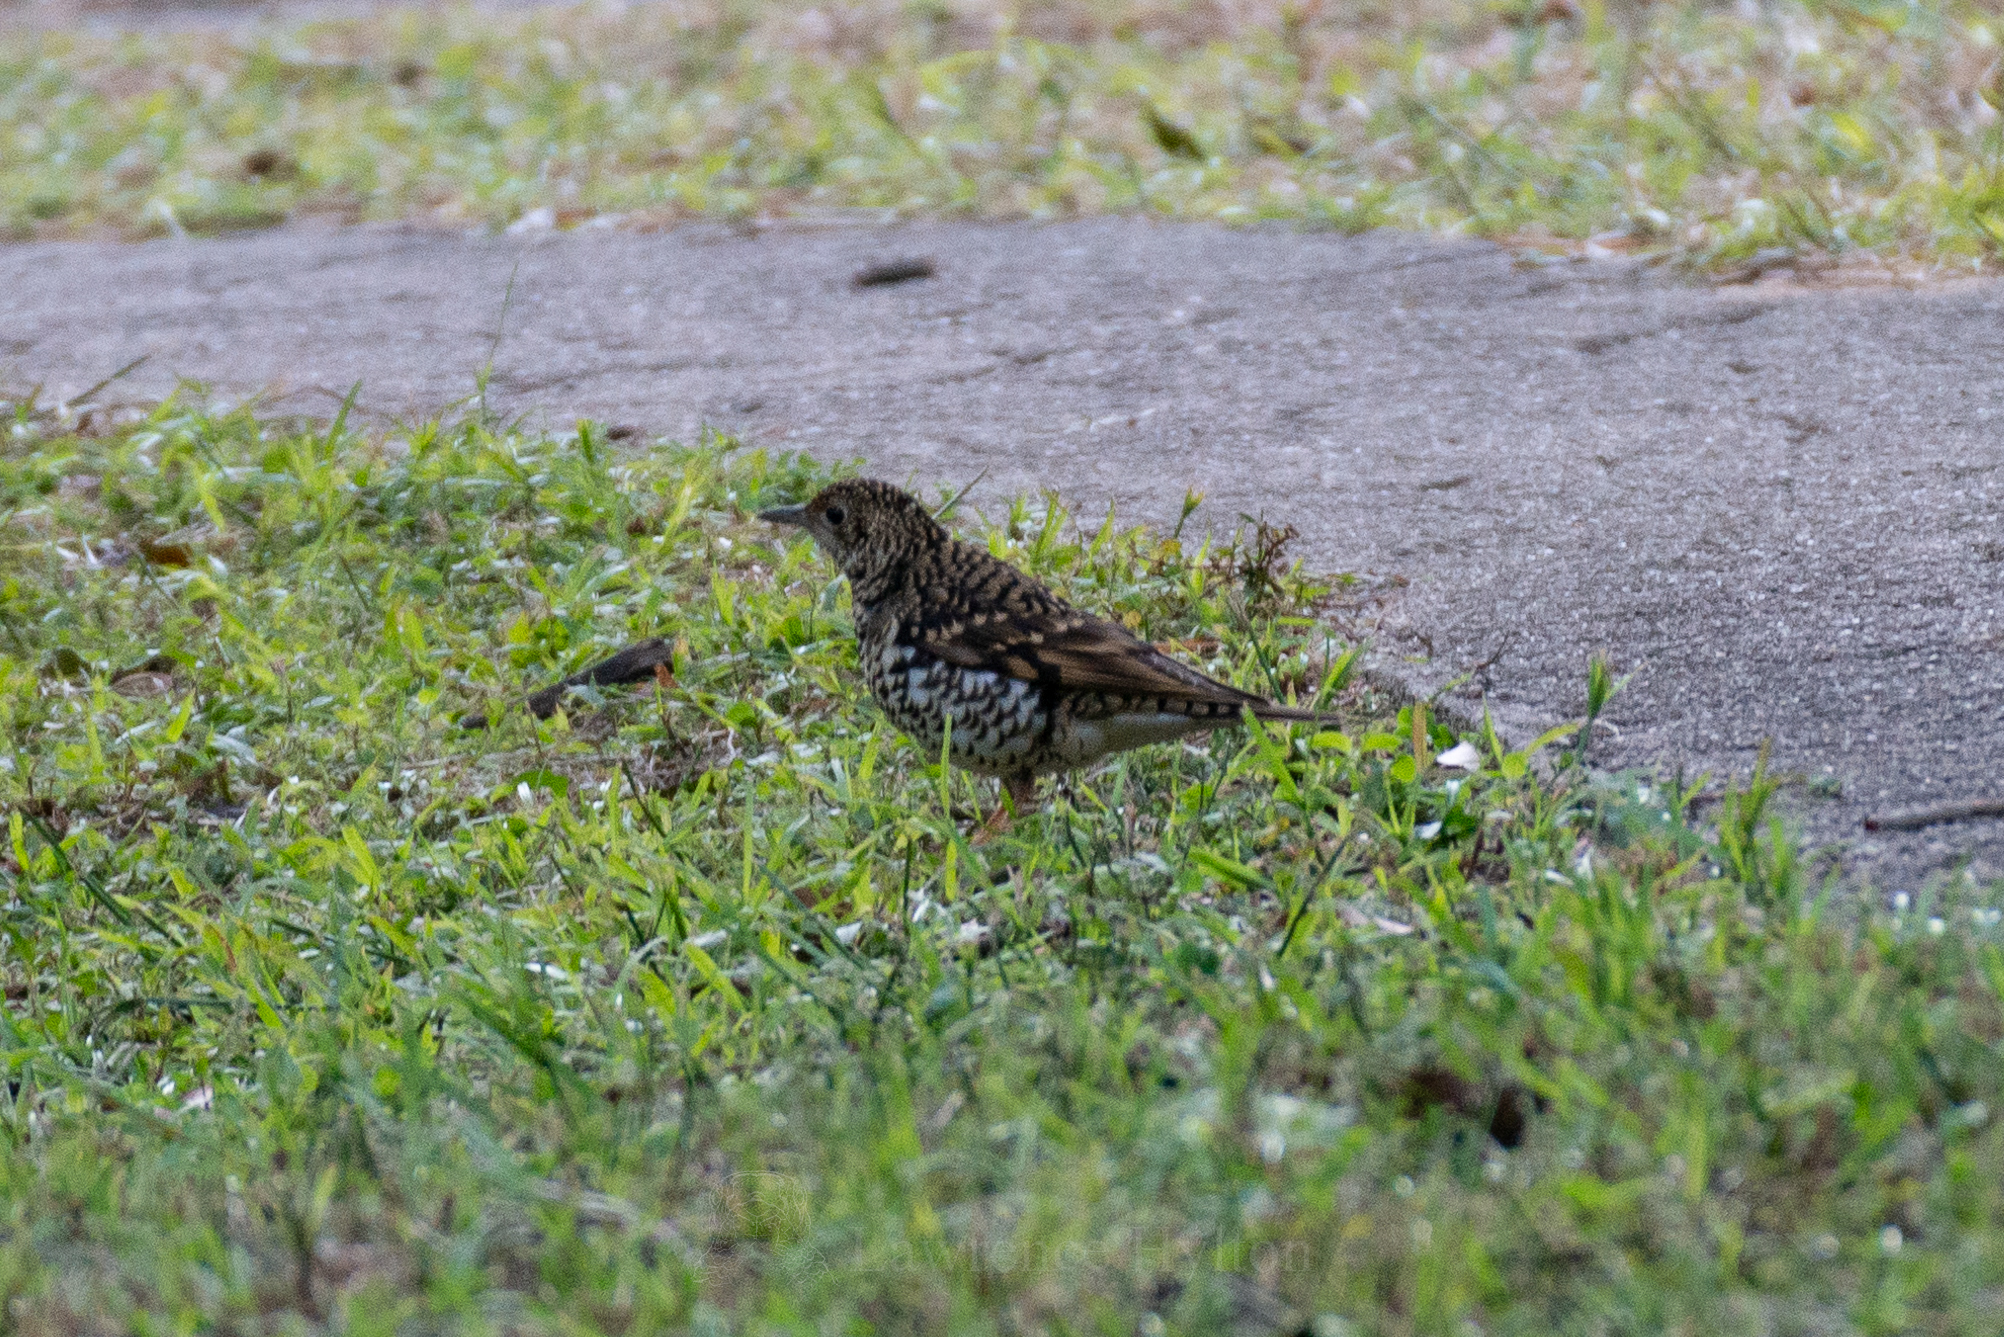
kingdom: Animalia
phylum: Chordata
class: Aves
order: Passeriformes
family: Turdidae
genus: Zoothera
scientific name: Zoothera aurea
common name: White's thrush
